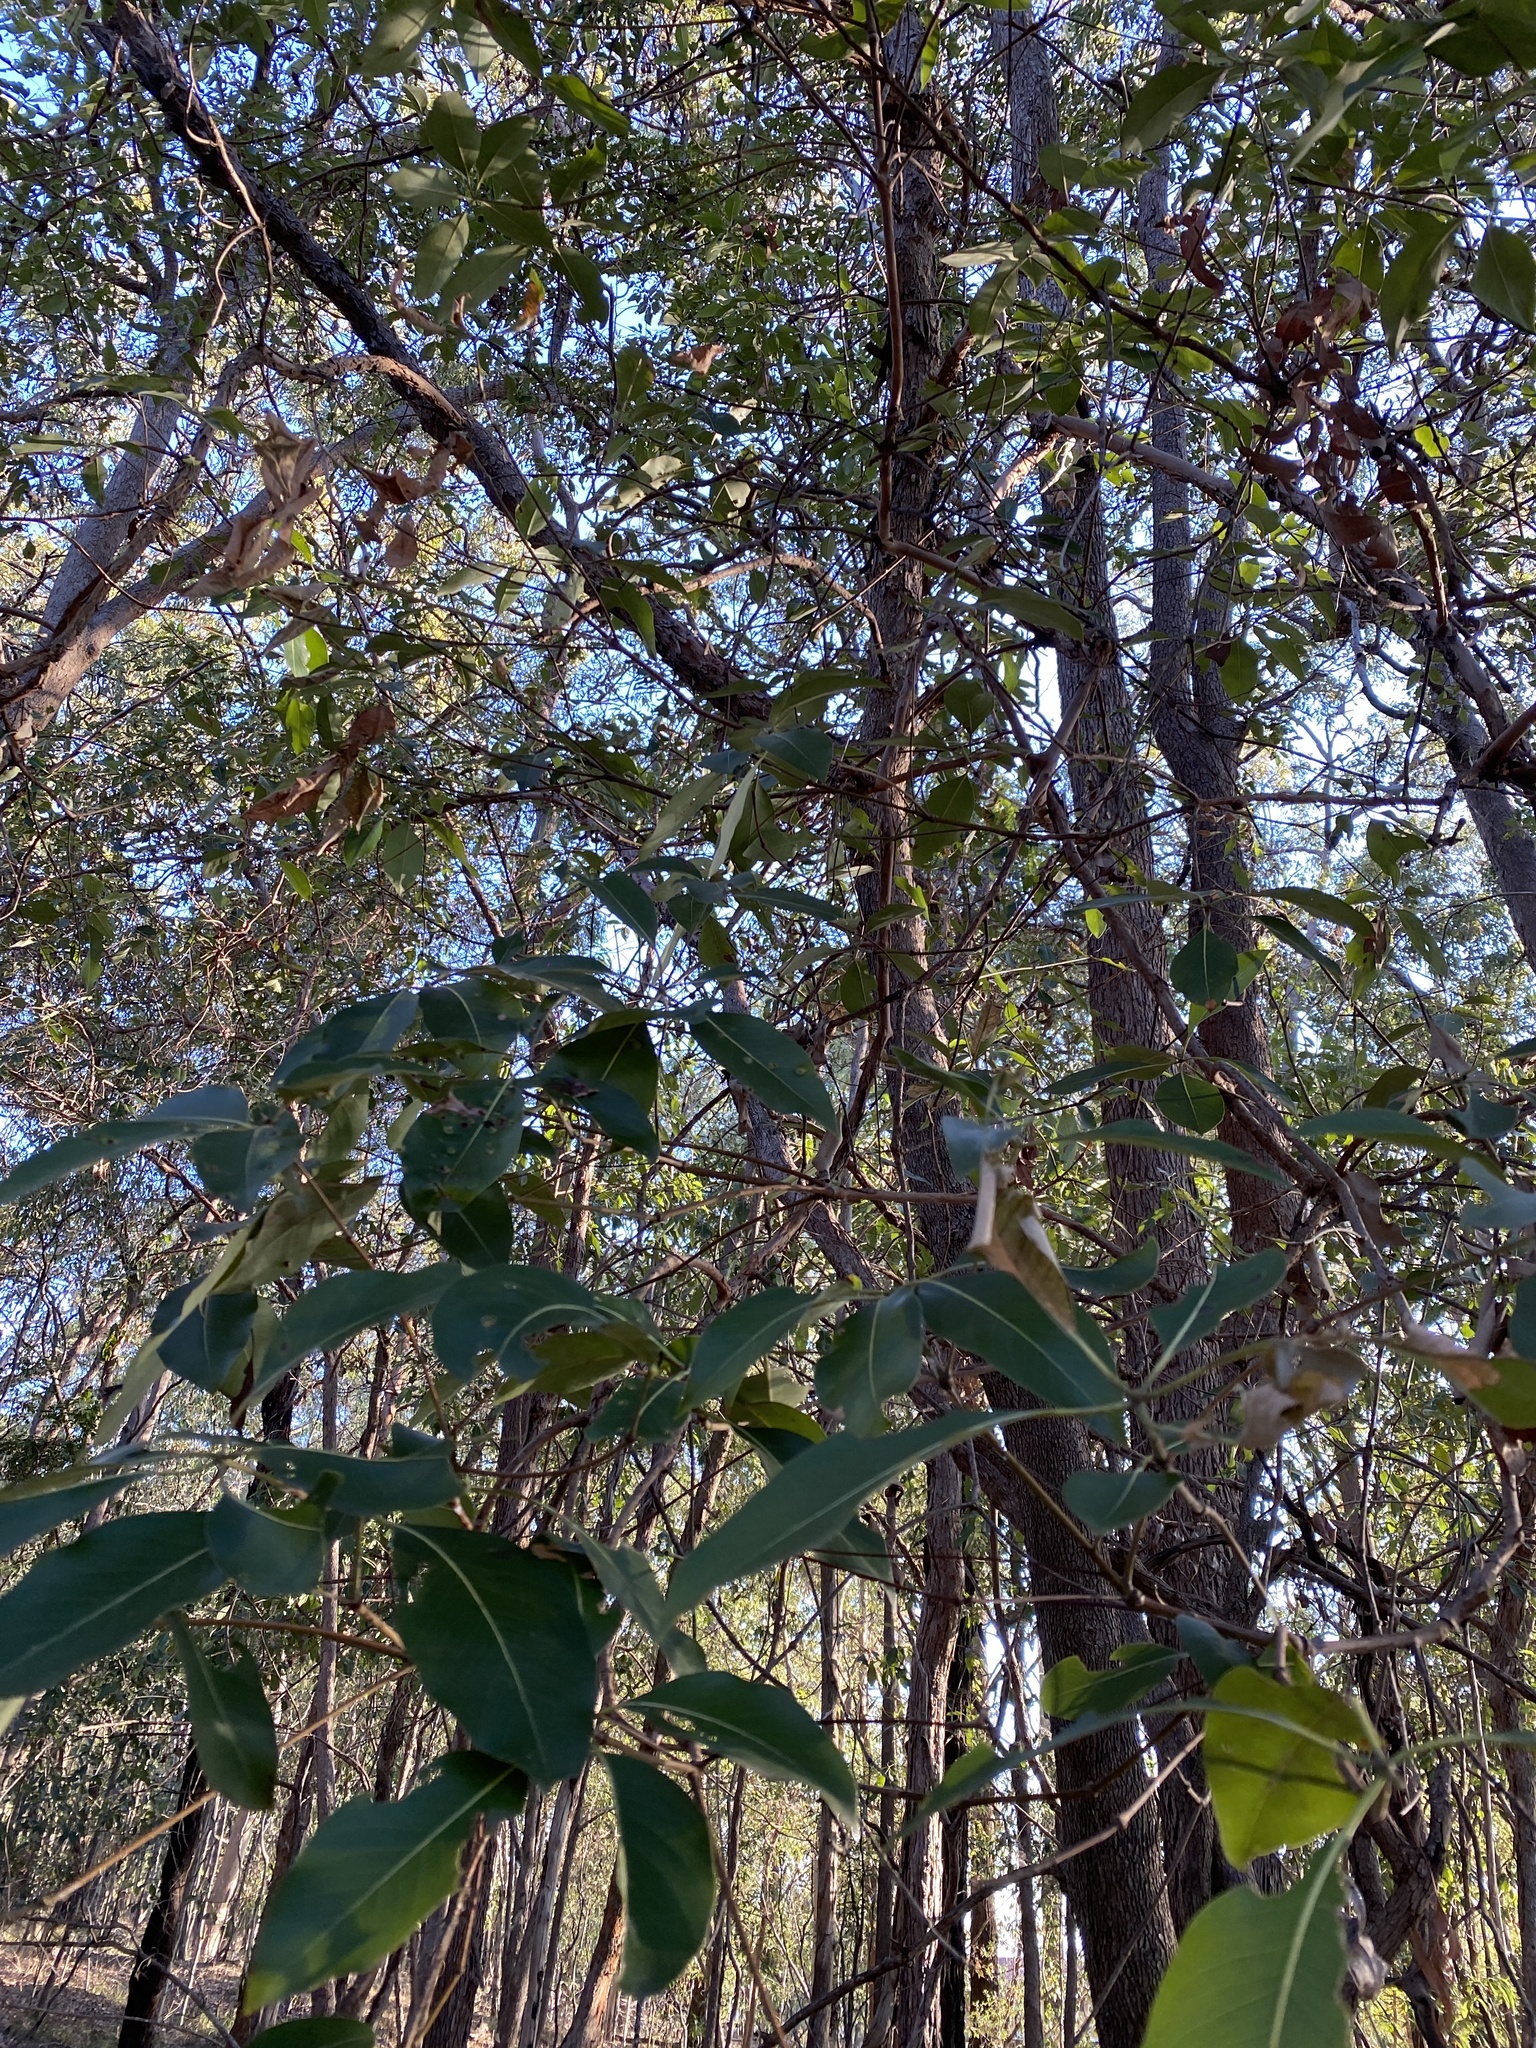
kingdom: Plantae
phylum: Tracheophyta
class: Magnoliopsida
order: Myrtales
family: Myrtaceae
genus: Lophostemon
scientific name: Lophostemon confertus
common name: Brisbane box
